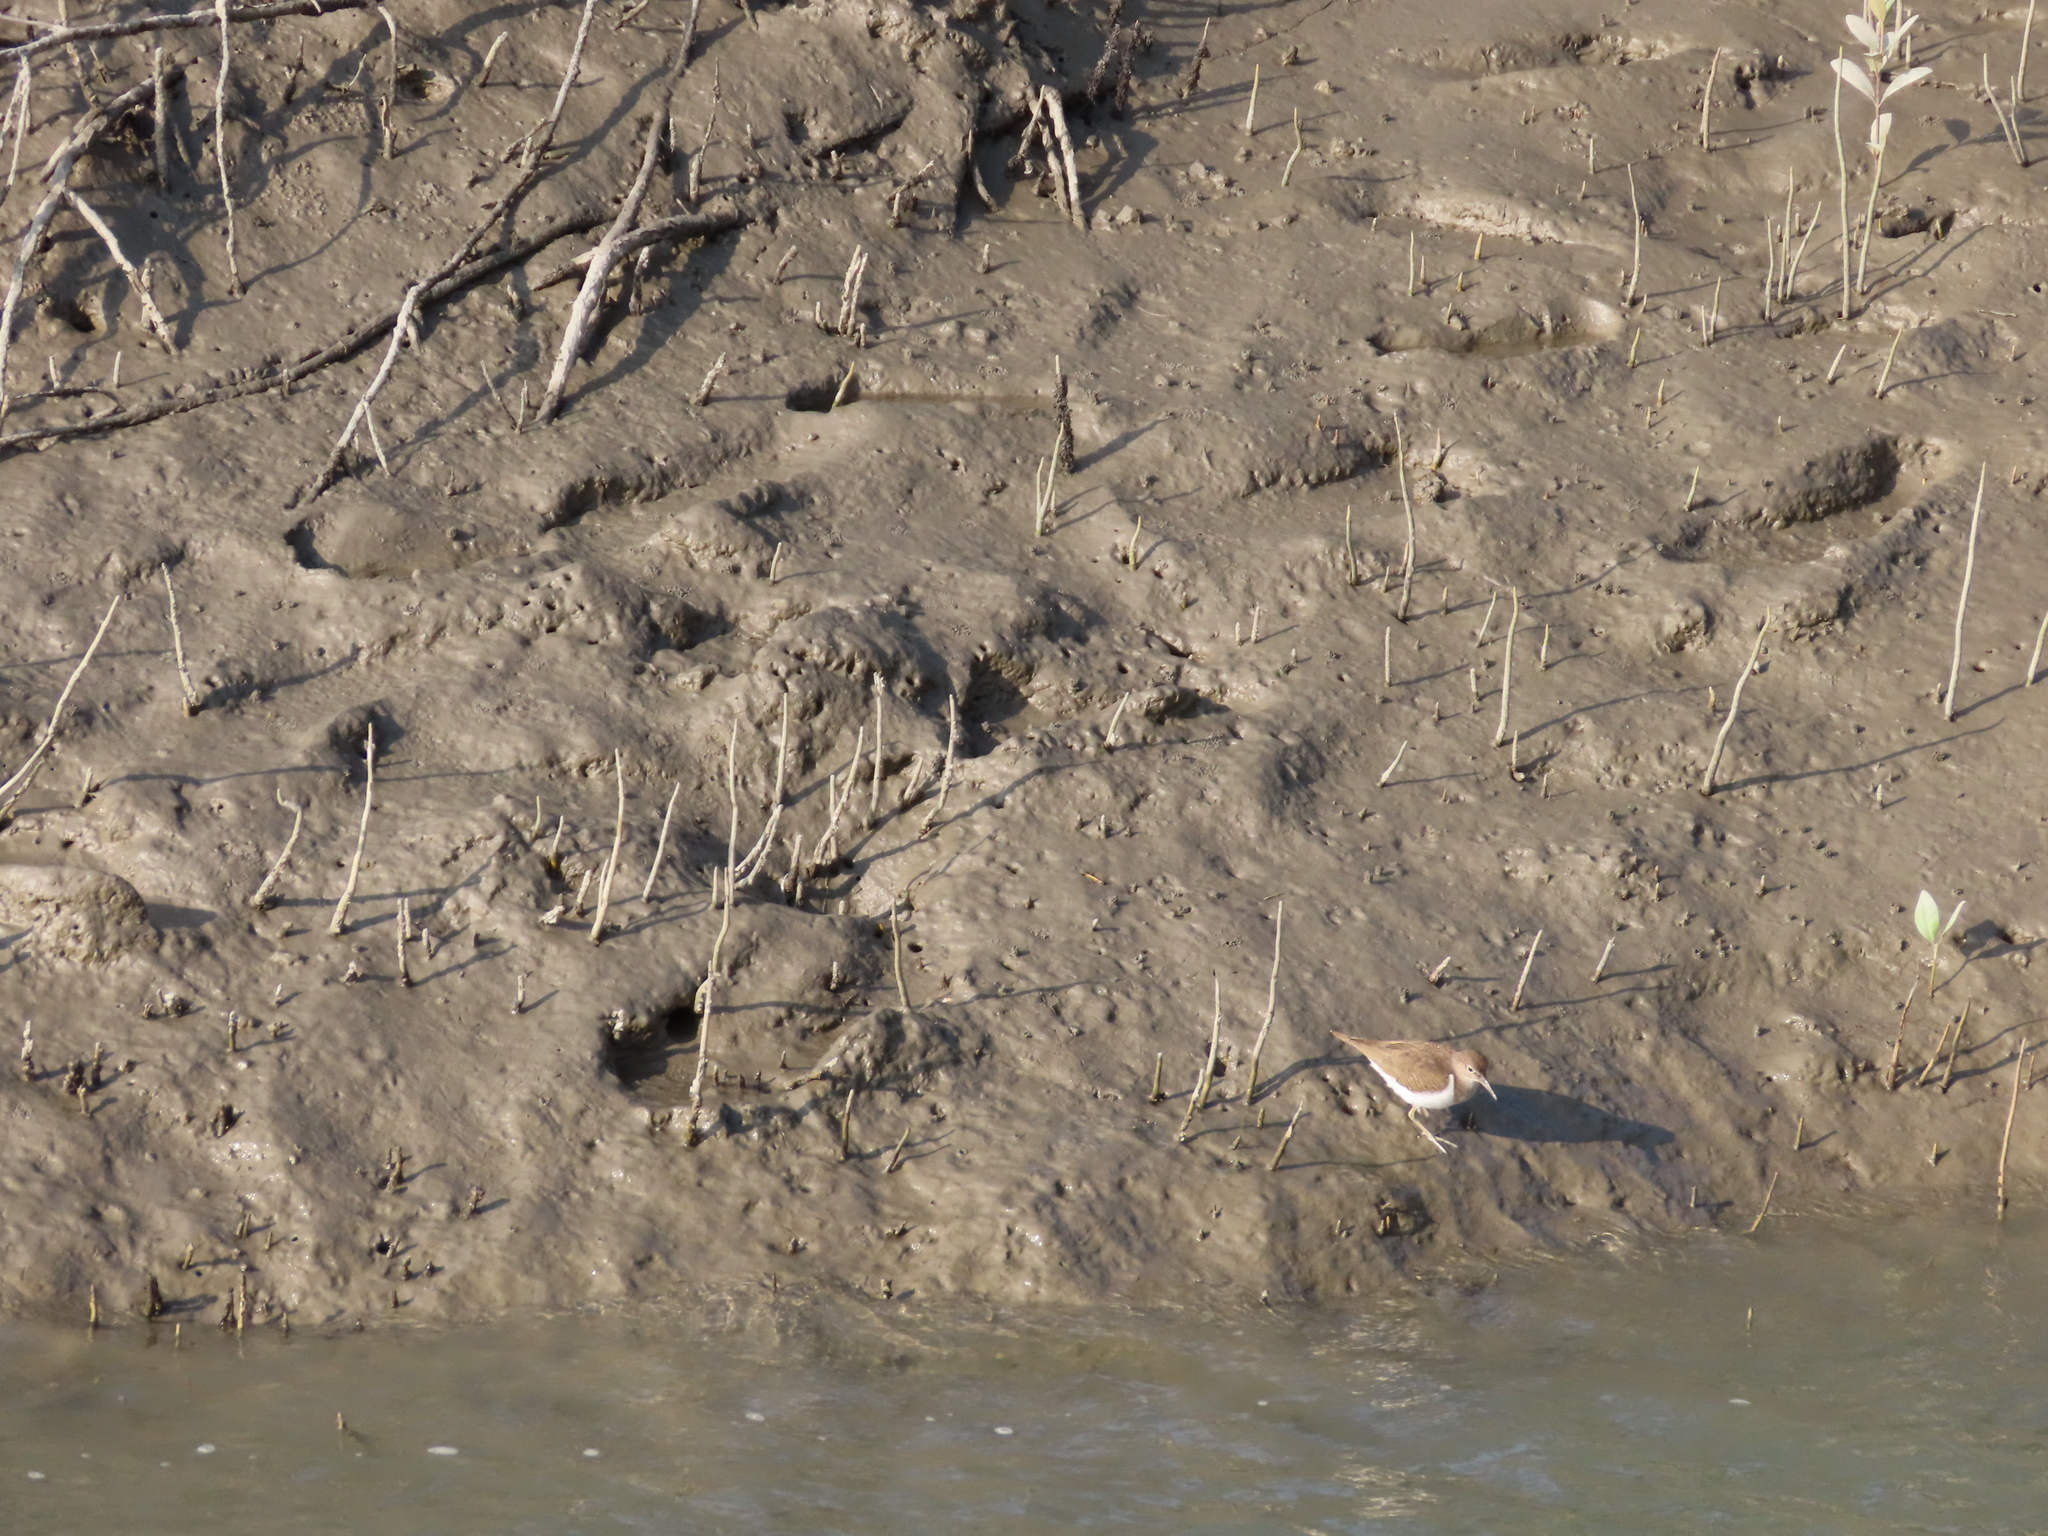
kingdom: Animalia
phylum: Chordata
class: Aves
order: Charadriiformes
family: Scolopacidae
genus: Actitis
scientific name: Actitis hypoleucos
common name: Common sandpiper
